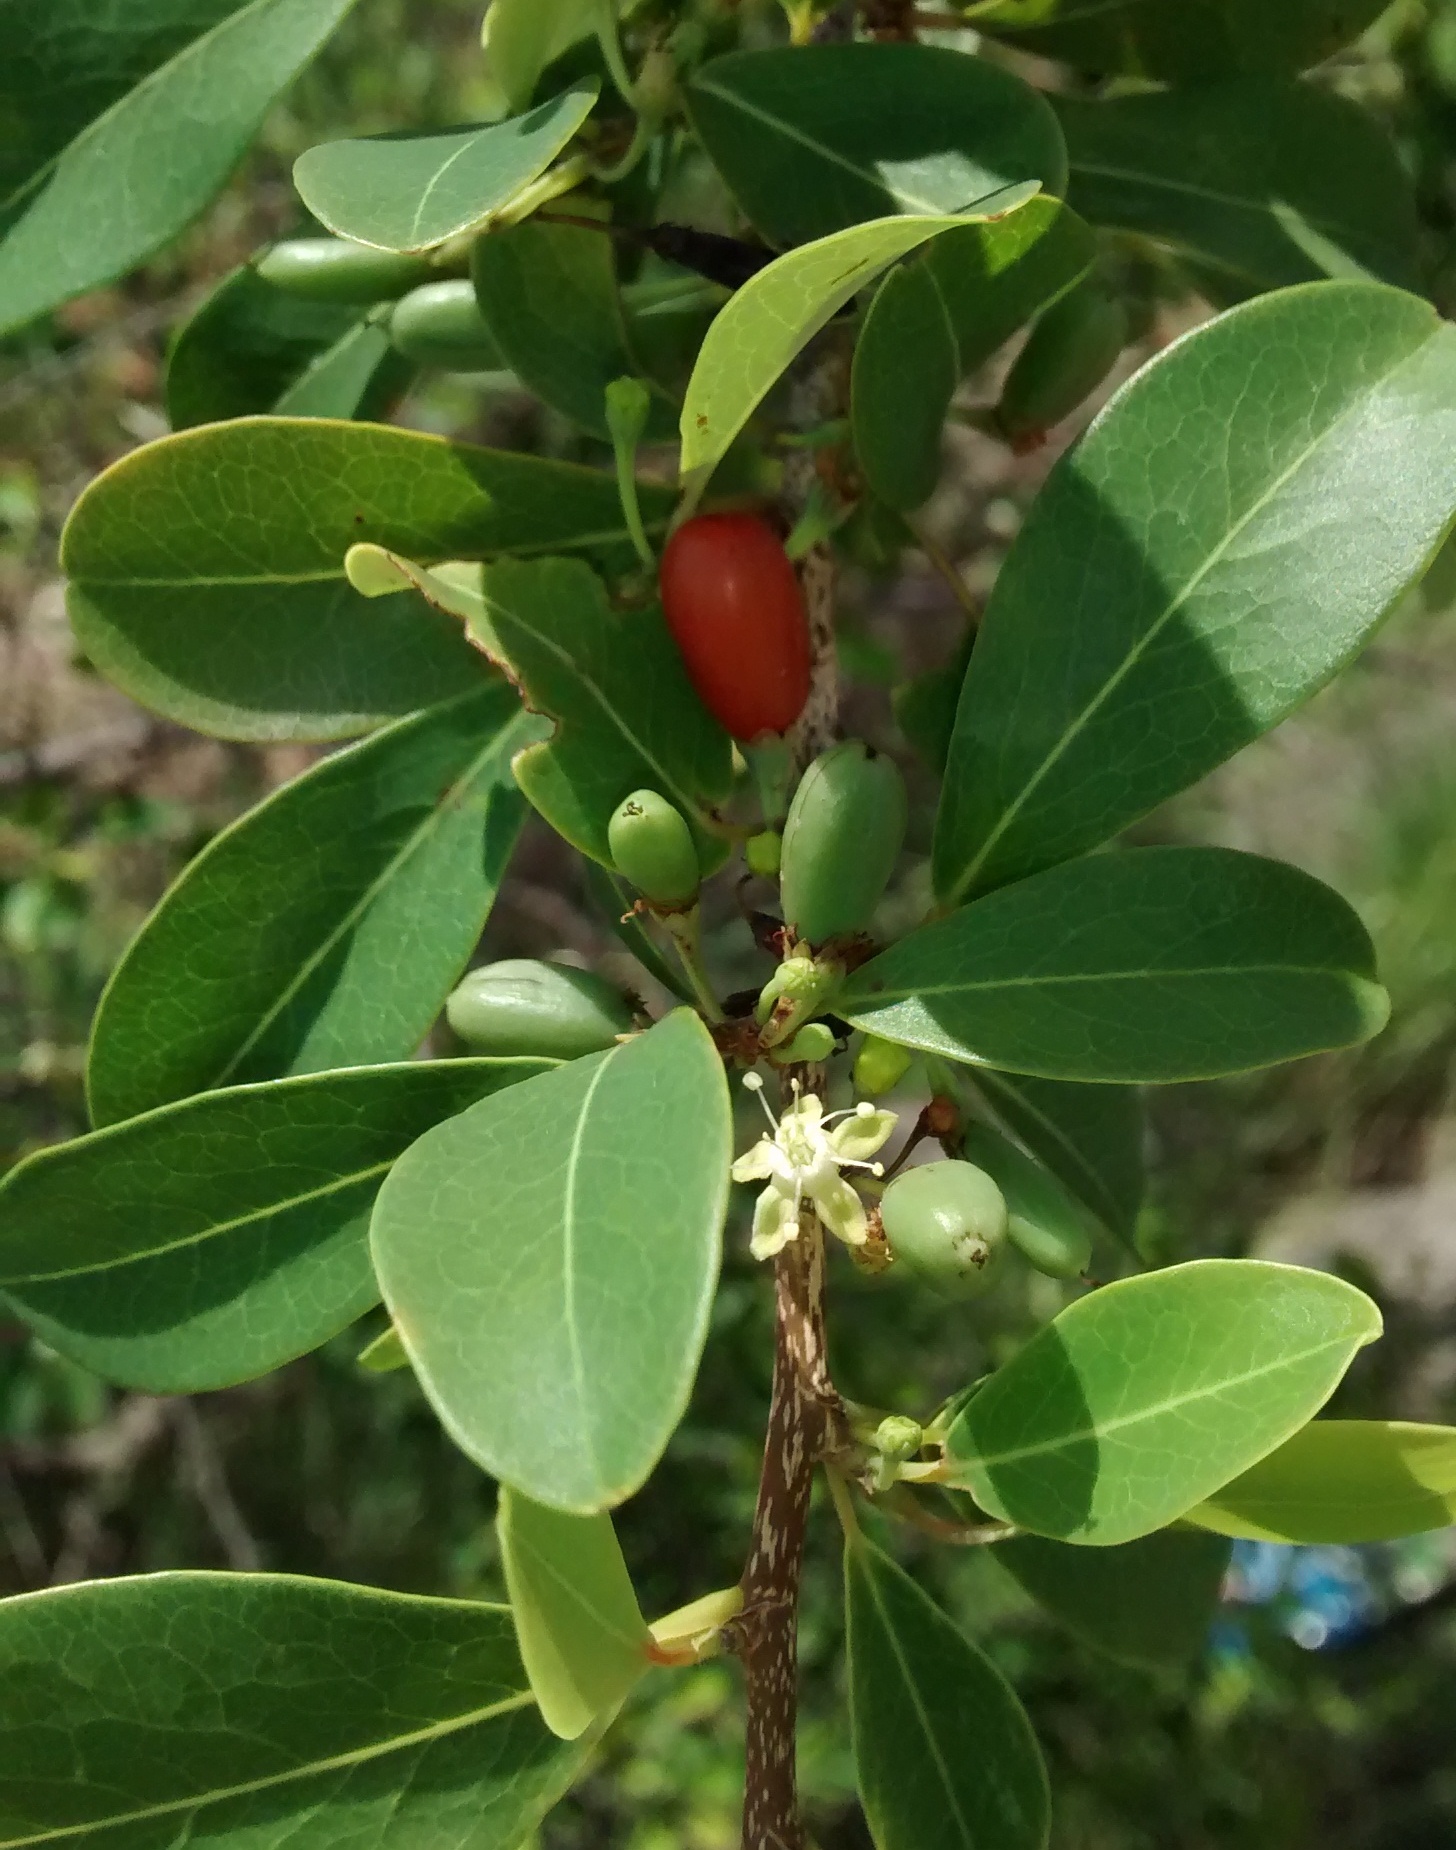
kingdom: Plantae
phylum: Tracheophyta
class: Magnoliopsida
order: Malpighiales
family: Erythroxylaceae
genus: Erythroxylum
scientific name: Erythroxylum monogynum
